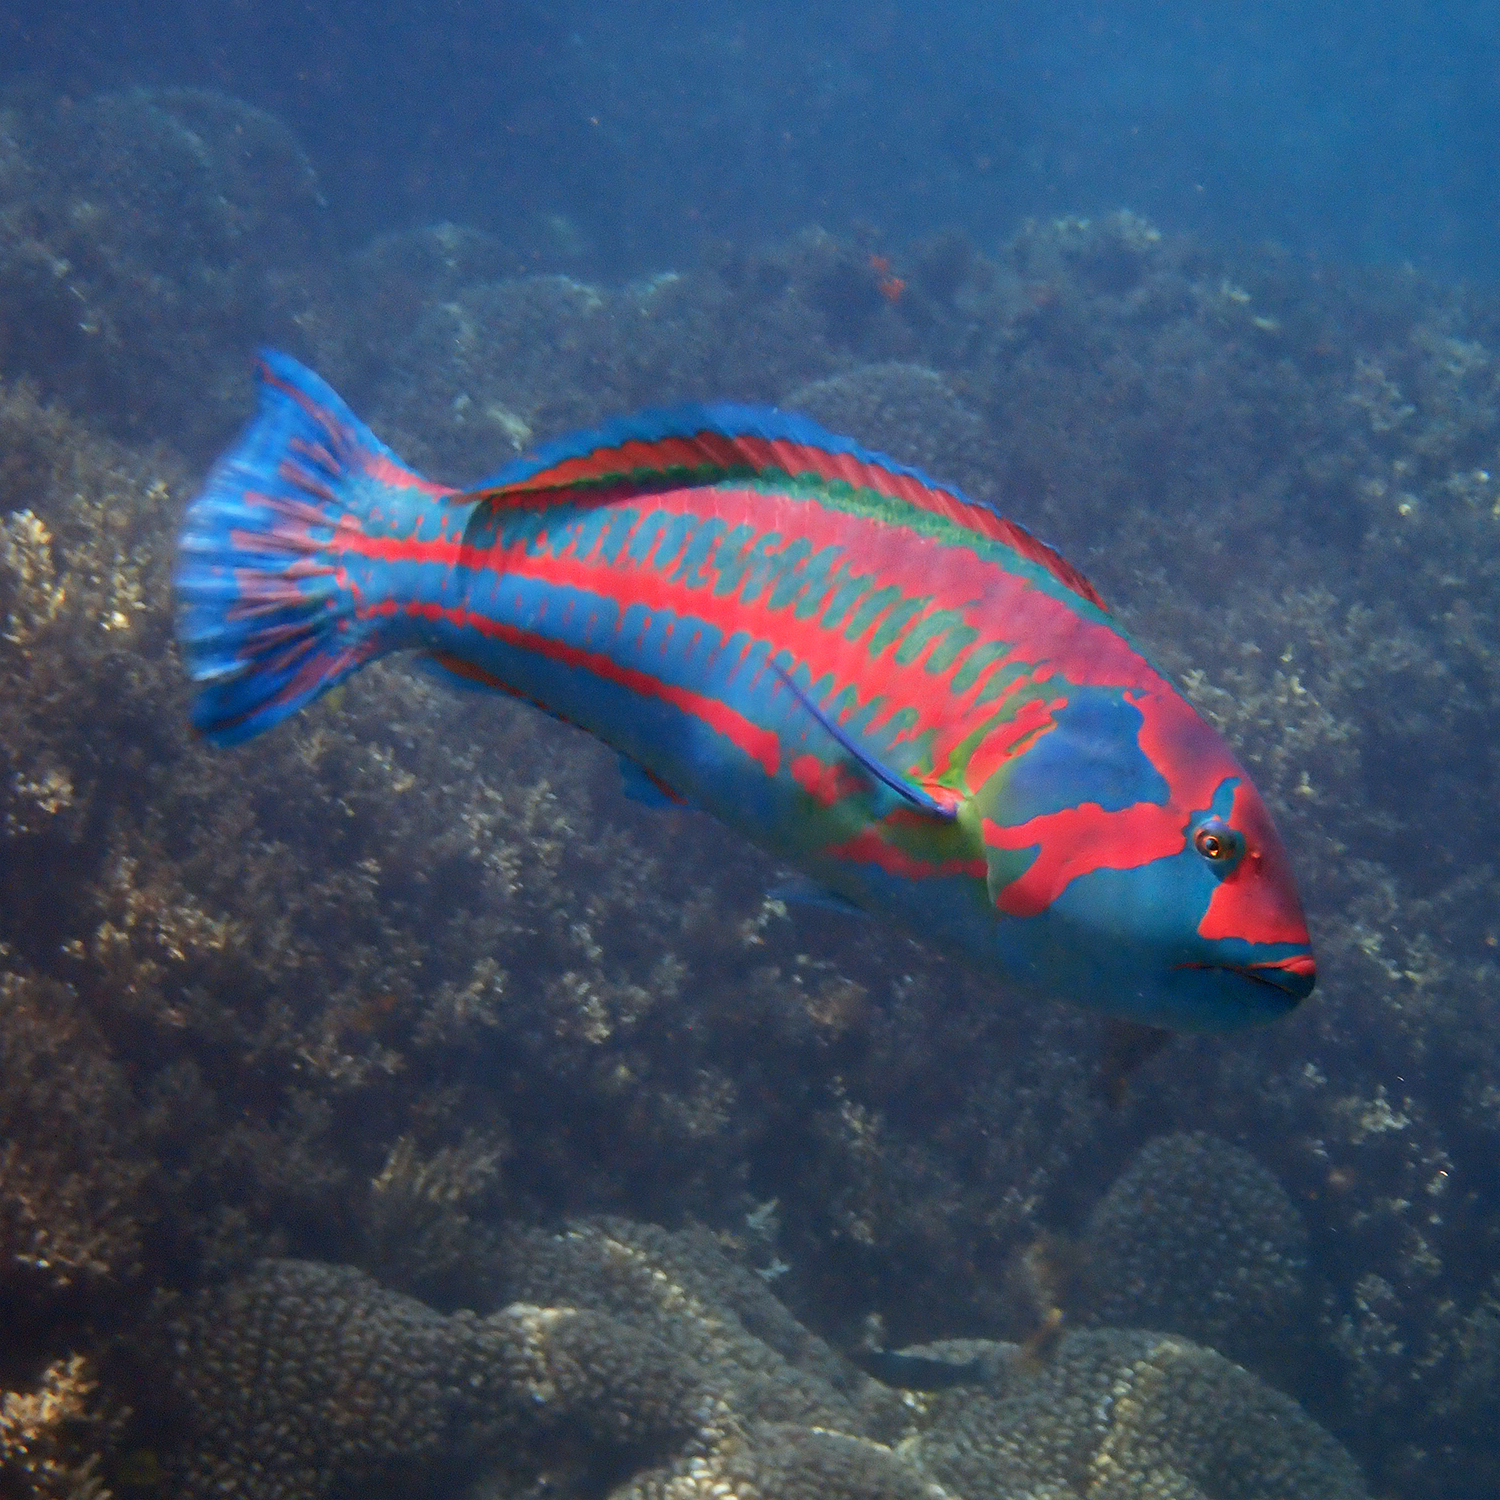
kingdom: Animalia
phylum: Chordata
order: Perciformes
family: Labridae
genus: Thalassoma
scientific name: Thalassoma purpureum
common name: Parrotfish
